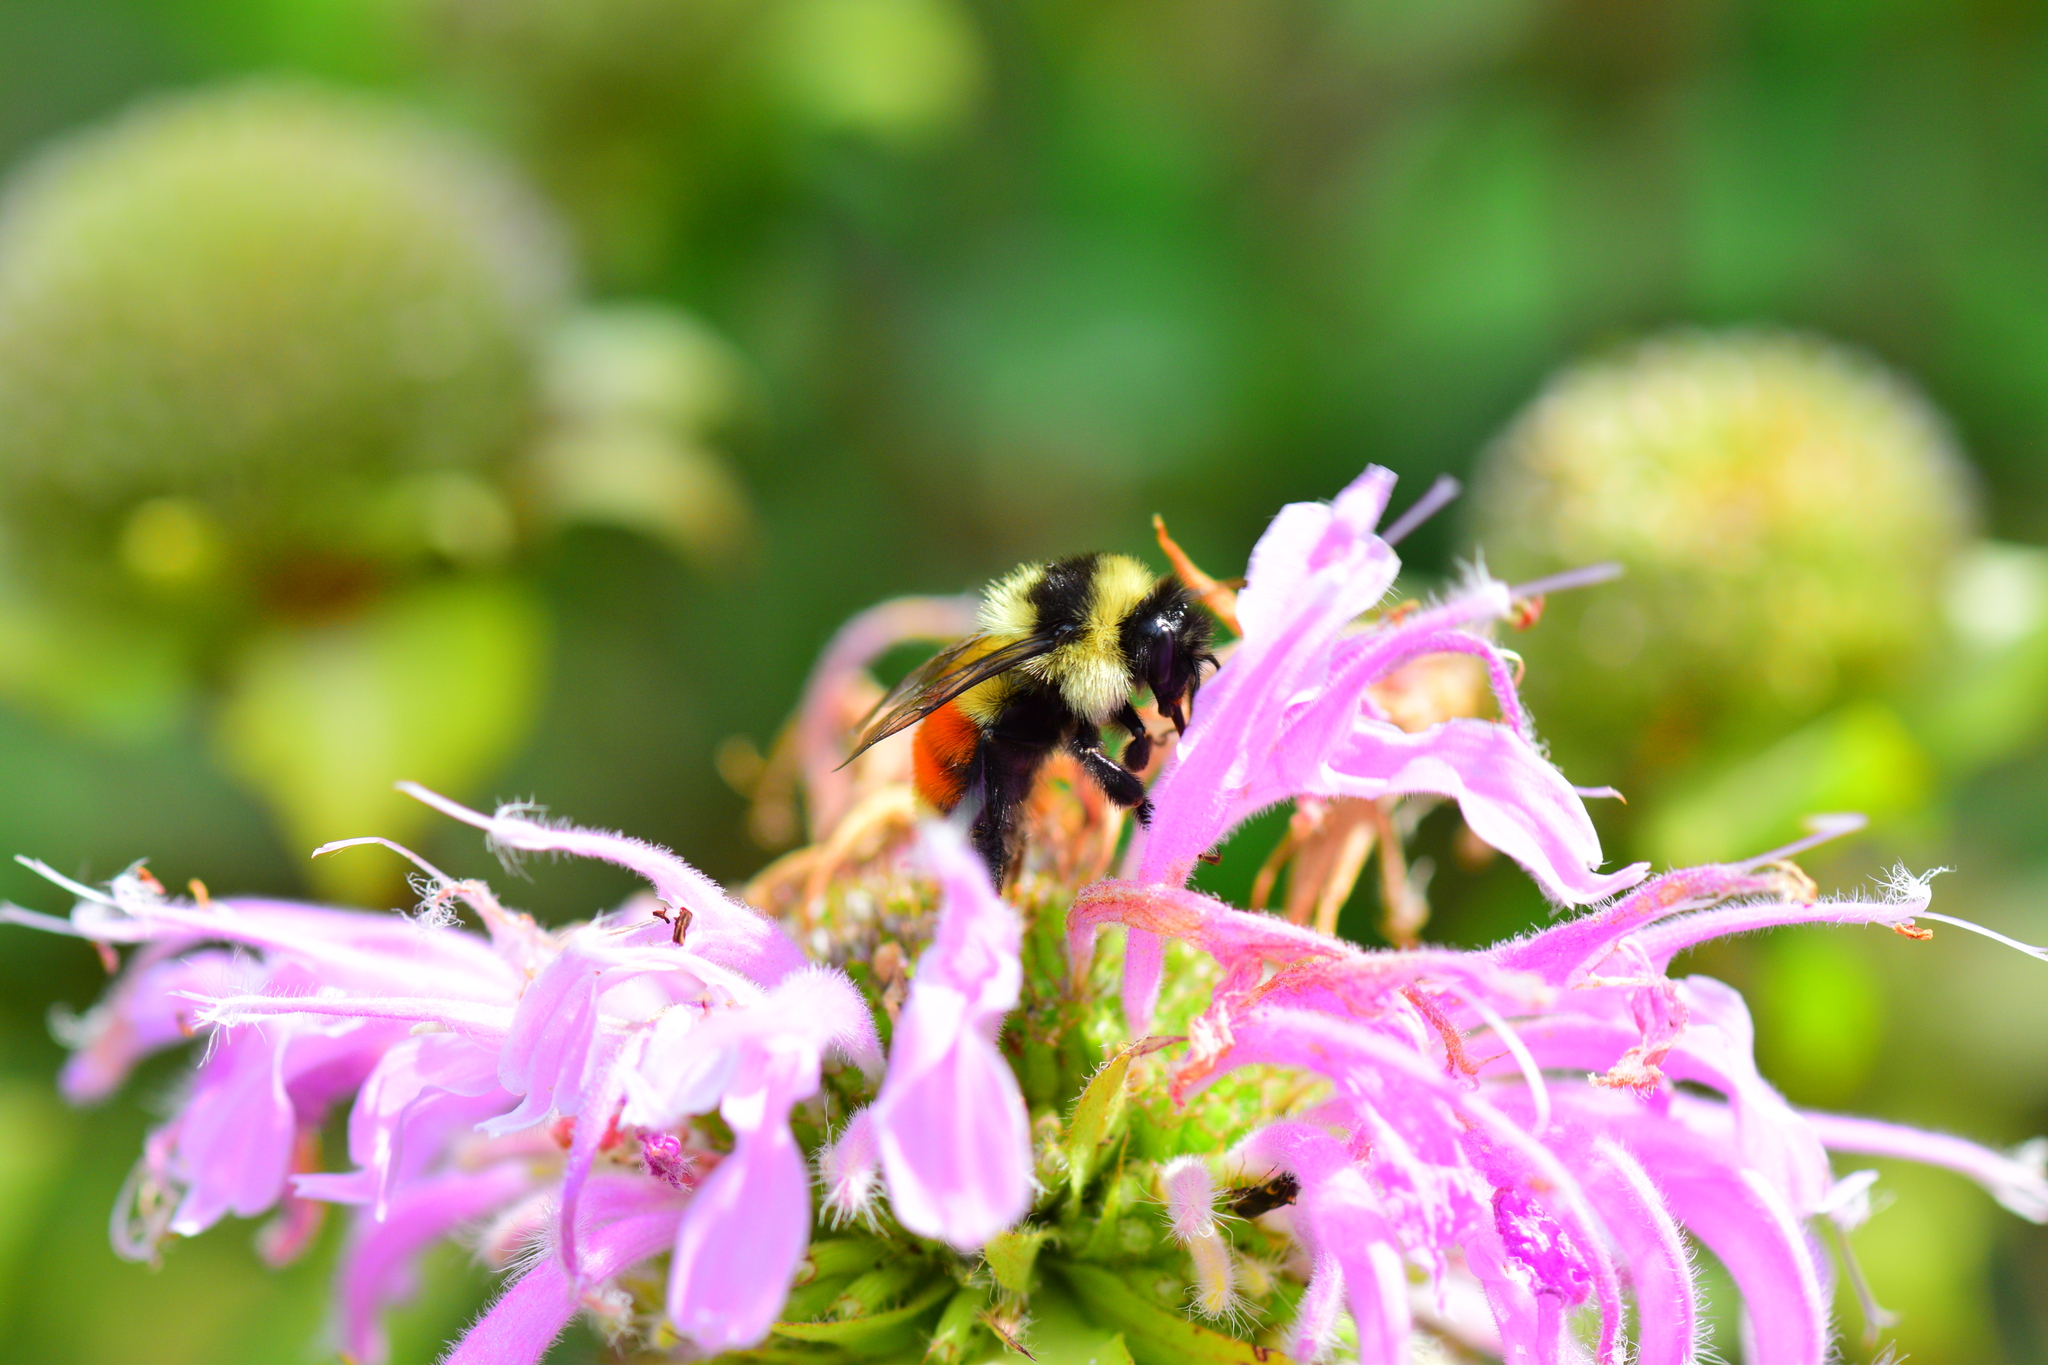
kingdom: Animalia
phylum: Arthropoda
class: Insecta
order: Hymenoptera
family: Apidae
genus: Bombus
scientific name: Bombus ternarius
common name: Tri-colored bumble bee
